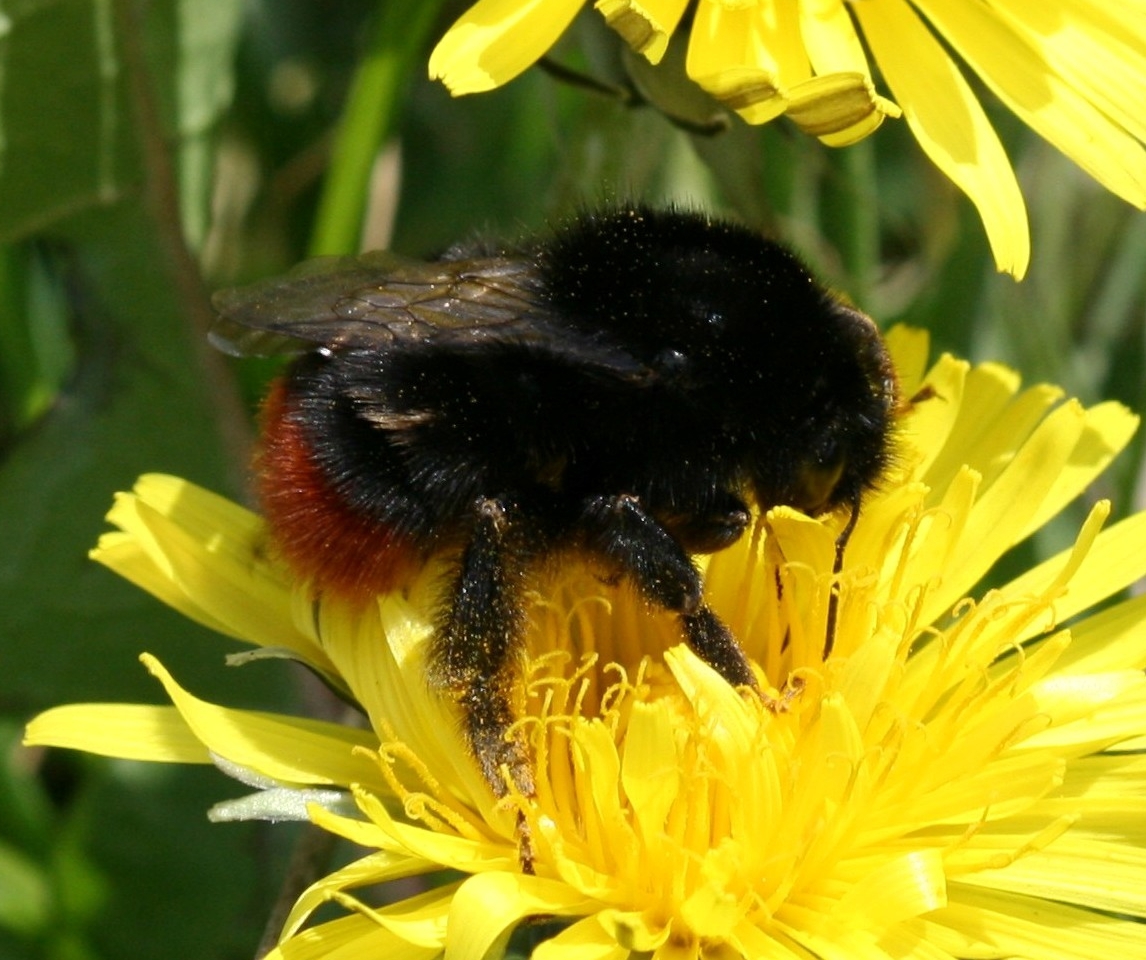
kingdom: Animalia
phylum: Arthropoda
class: Insecta
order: Hymenoptera
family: Apidae
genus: Bombus
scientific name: Bombus lapidarius
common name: Large red-tailed humble-bee
